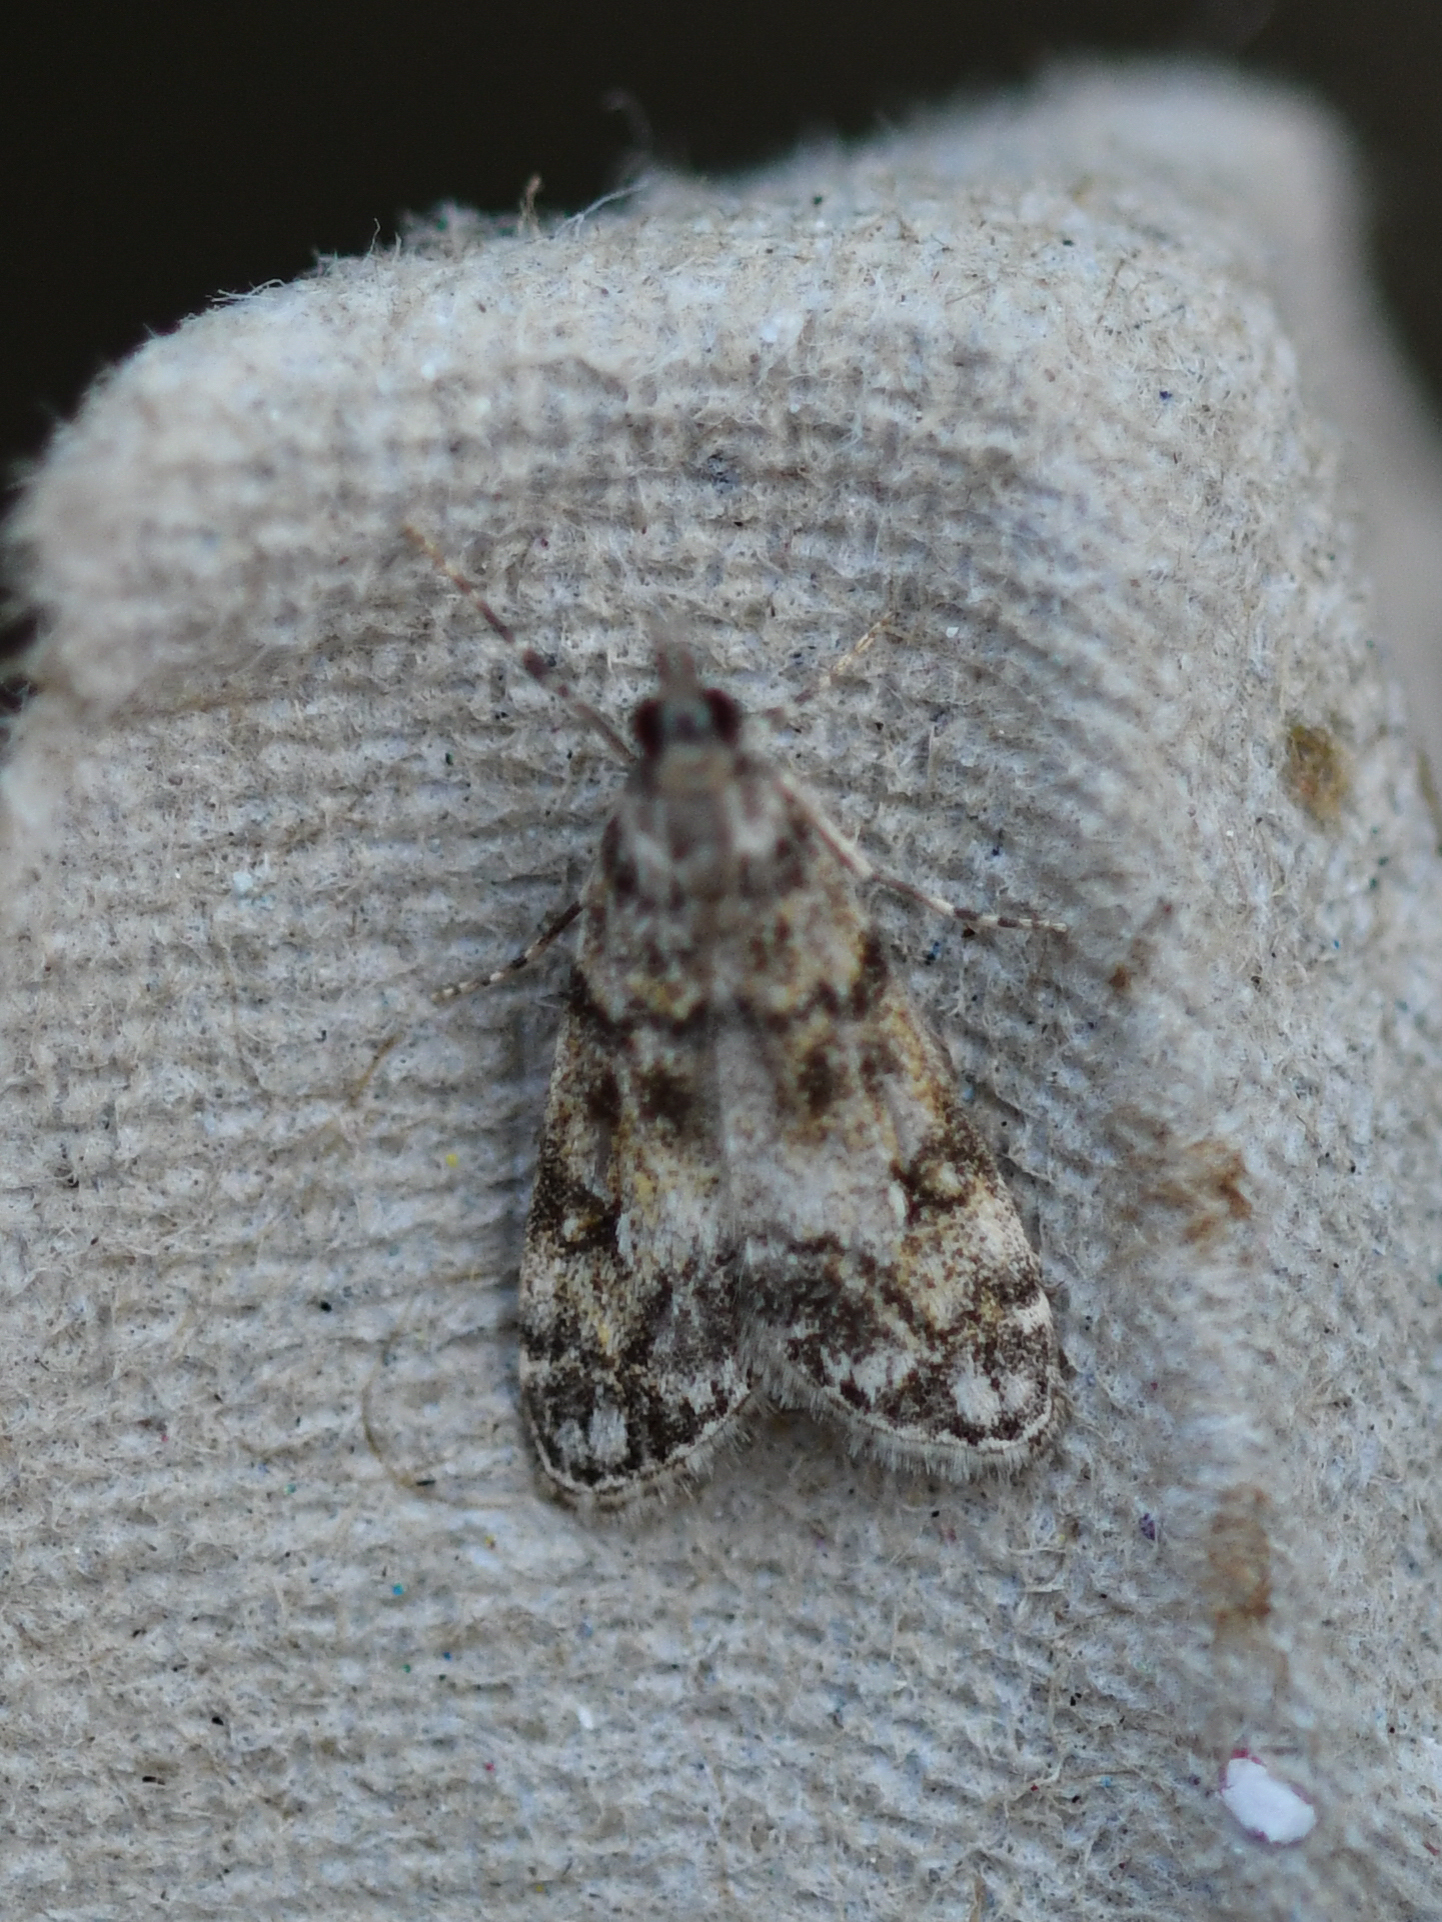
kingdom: Animalia
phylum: Arthropoda
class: Insecta
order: Lepidoptera
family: Crambidae
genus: Eudonia
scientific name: Eudonia lacustrata
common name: Little grey
